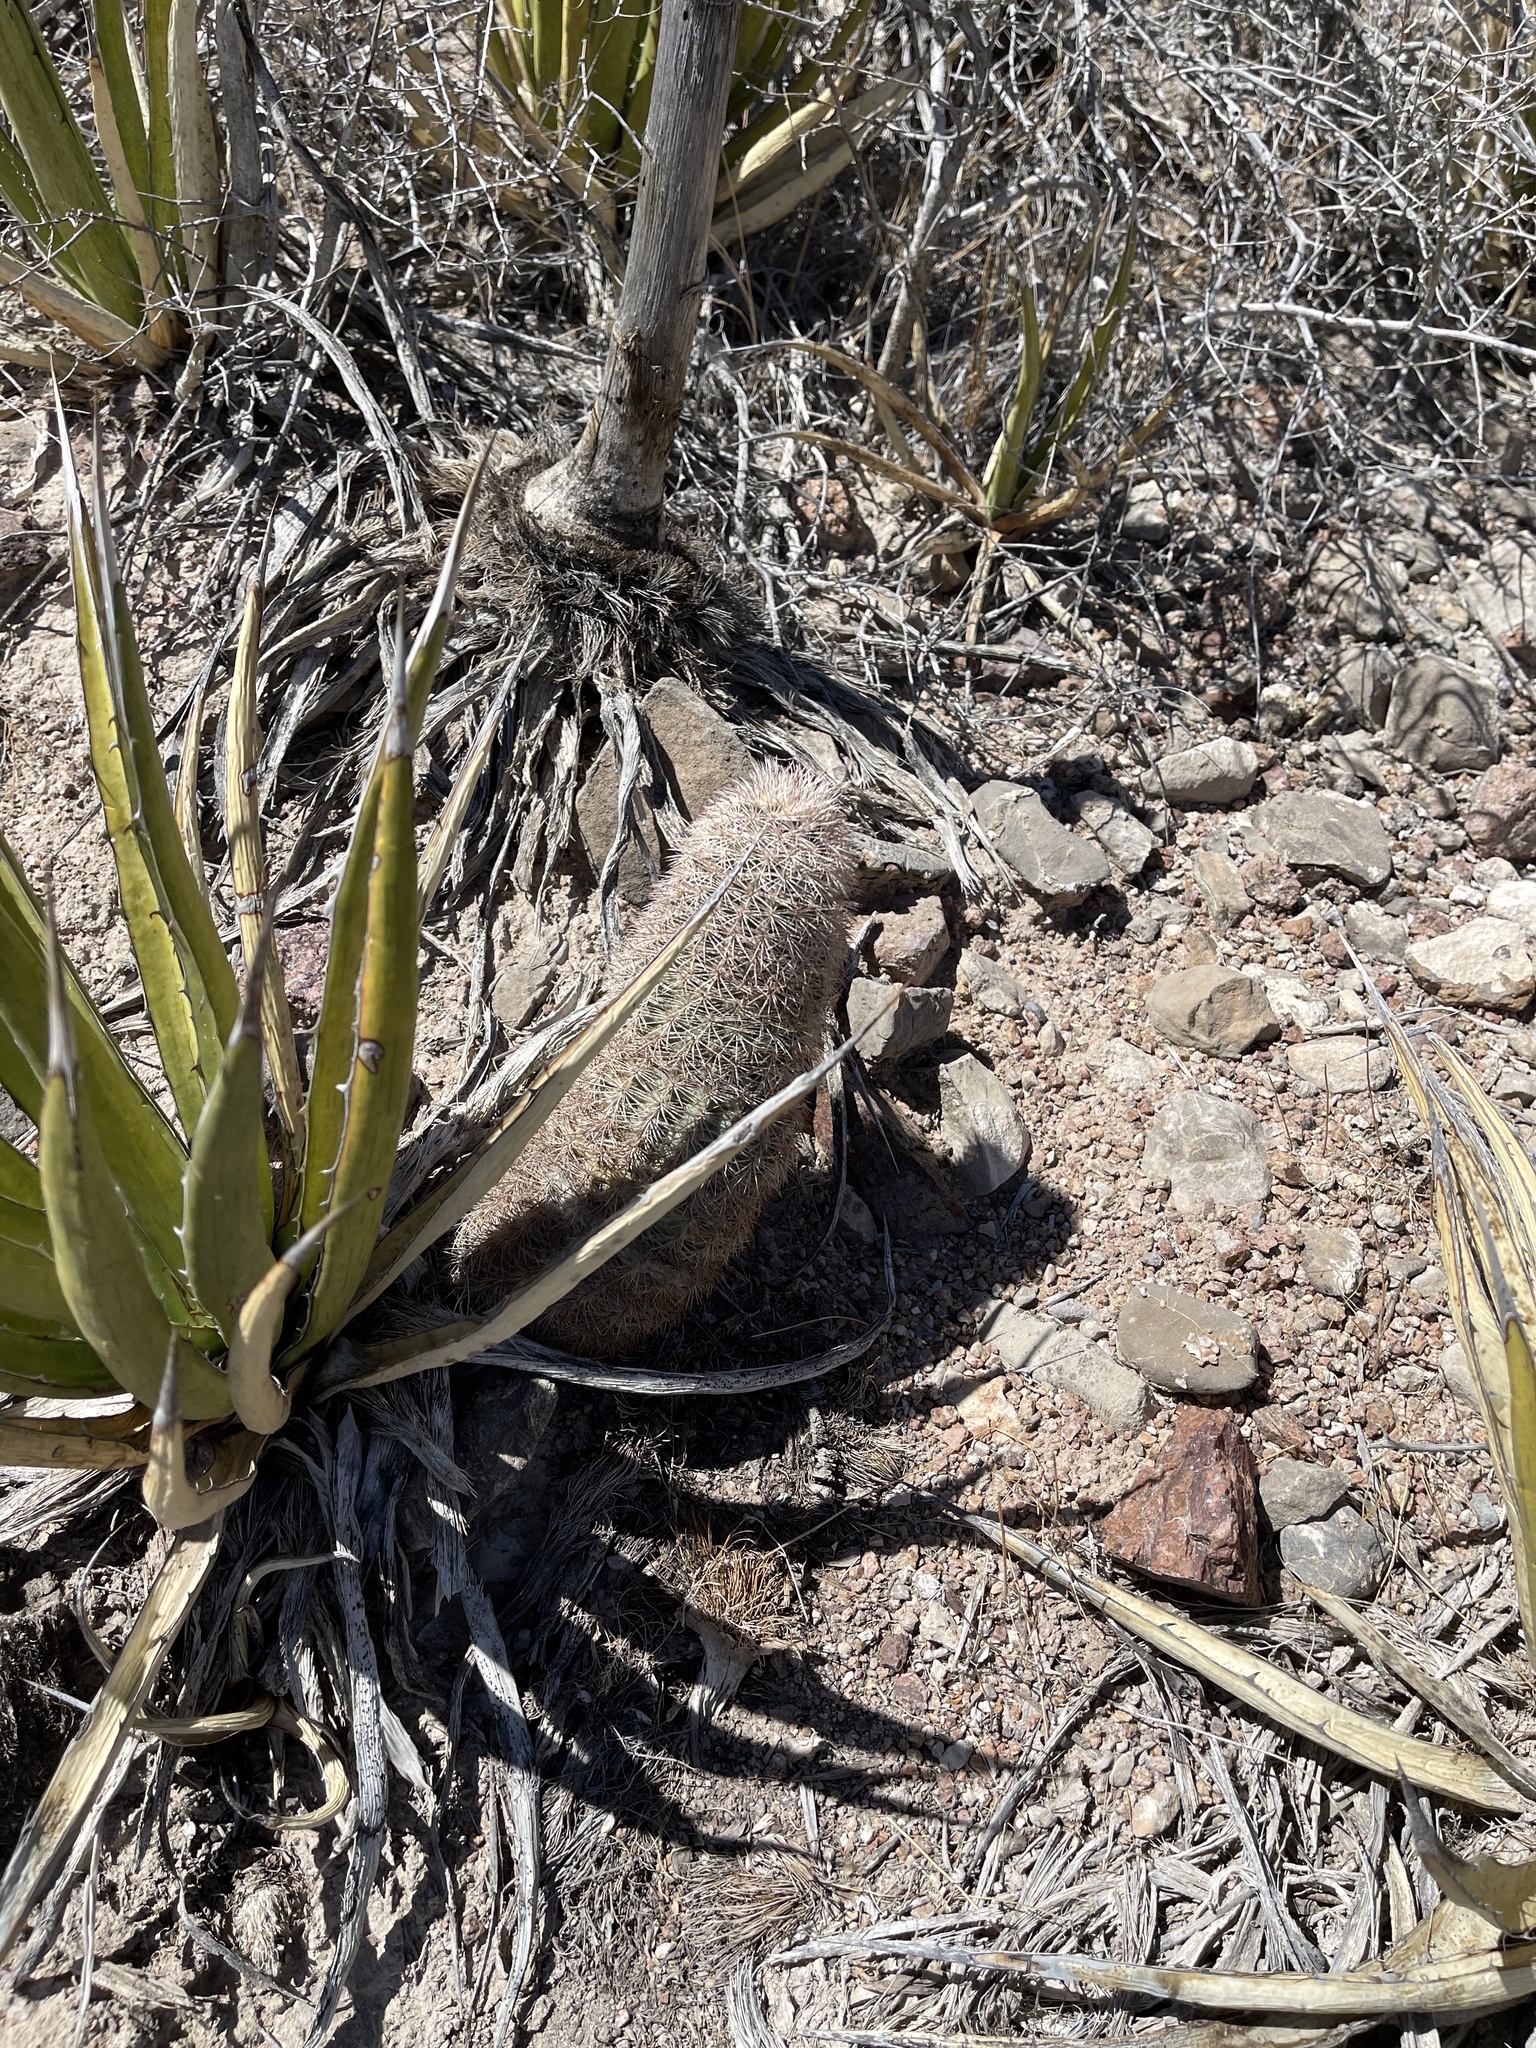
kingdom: Plantae
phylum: Tracheophyta
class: Magnoliopsida
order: Caryophyllales
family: Cactaceae
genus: Echinocereus
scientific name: Echinocereus dasyacanthus
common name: Spiny hedgehog cactus
